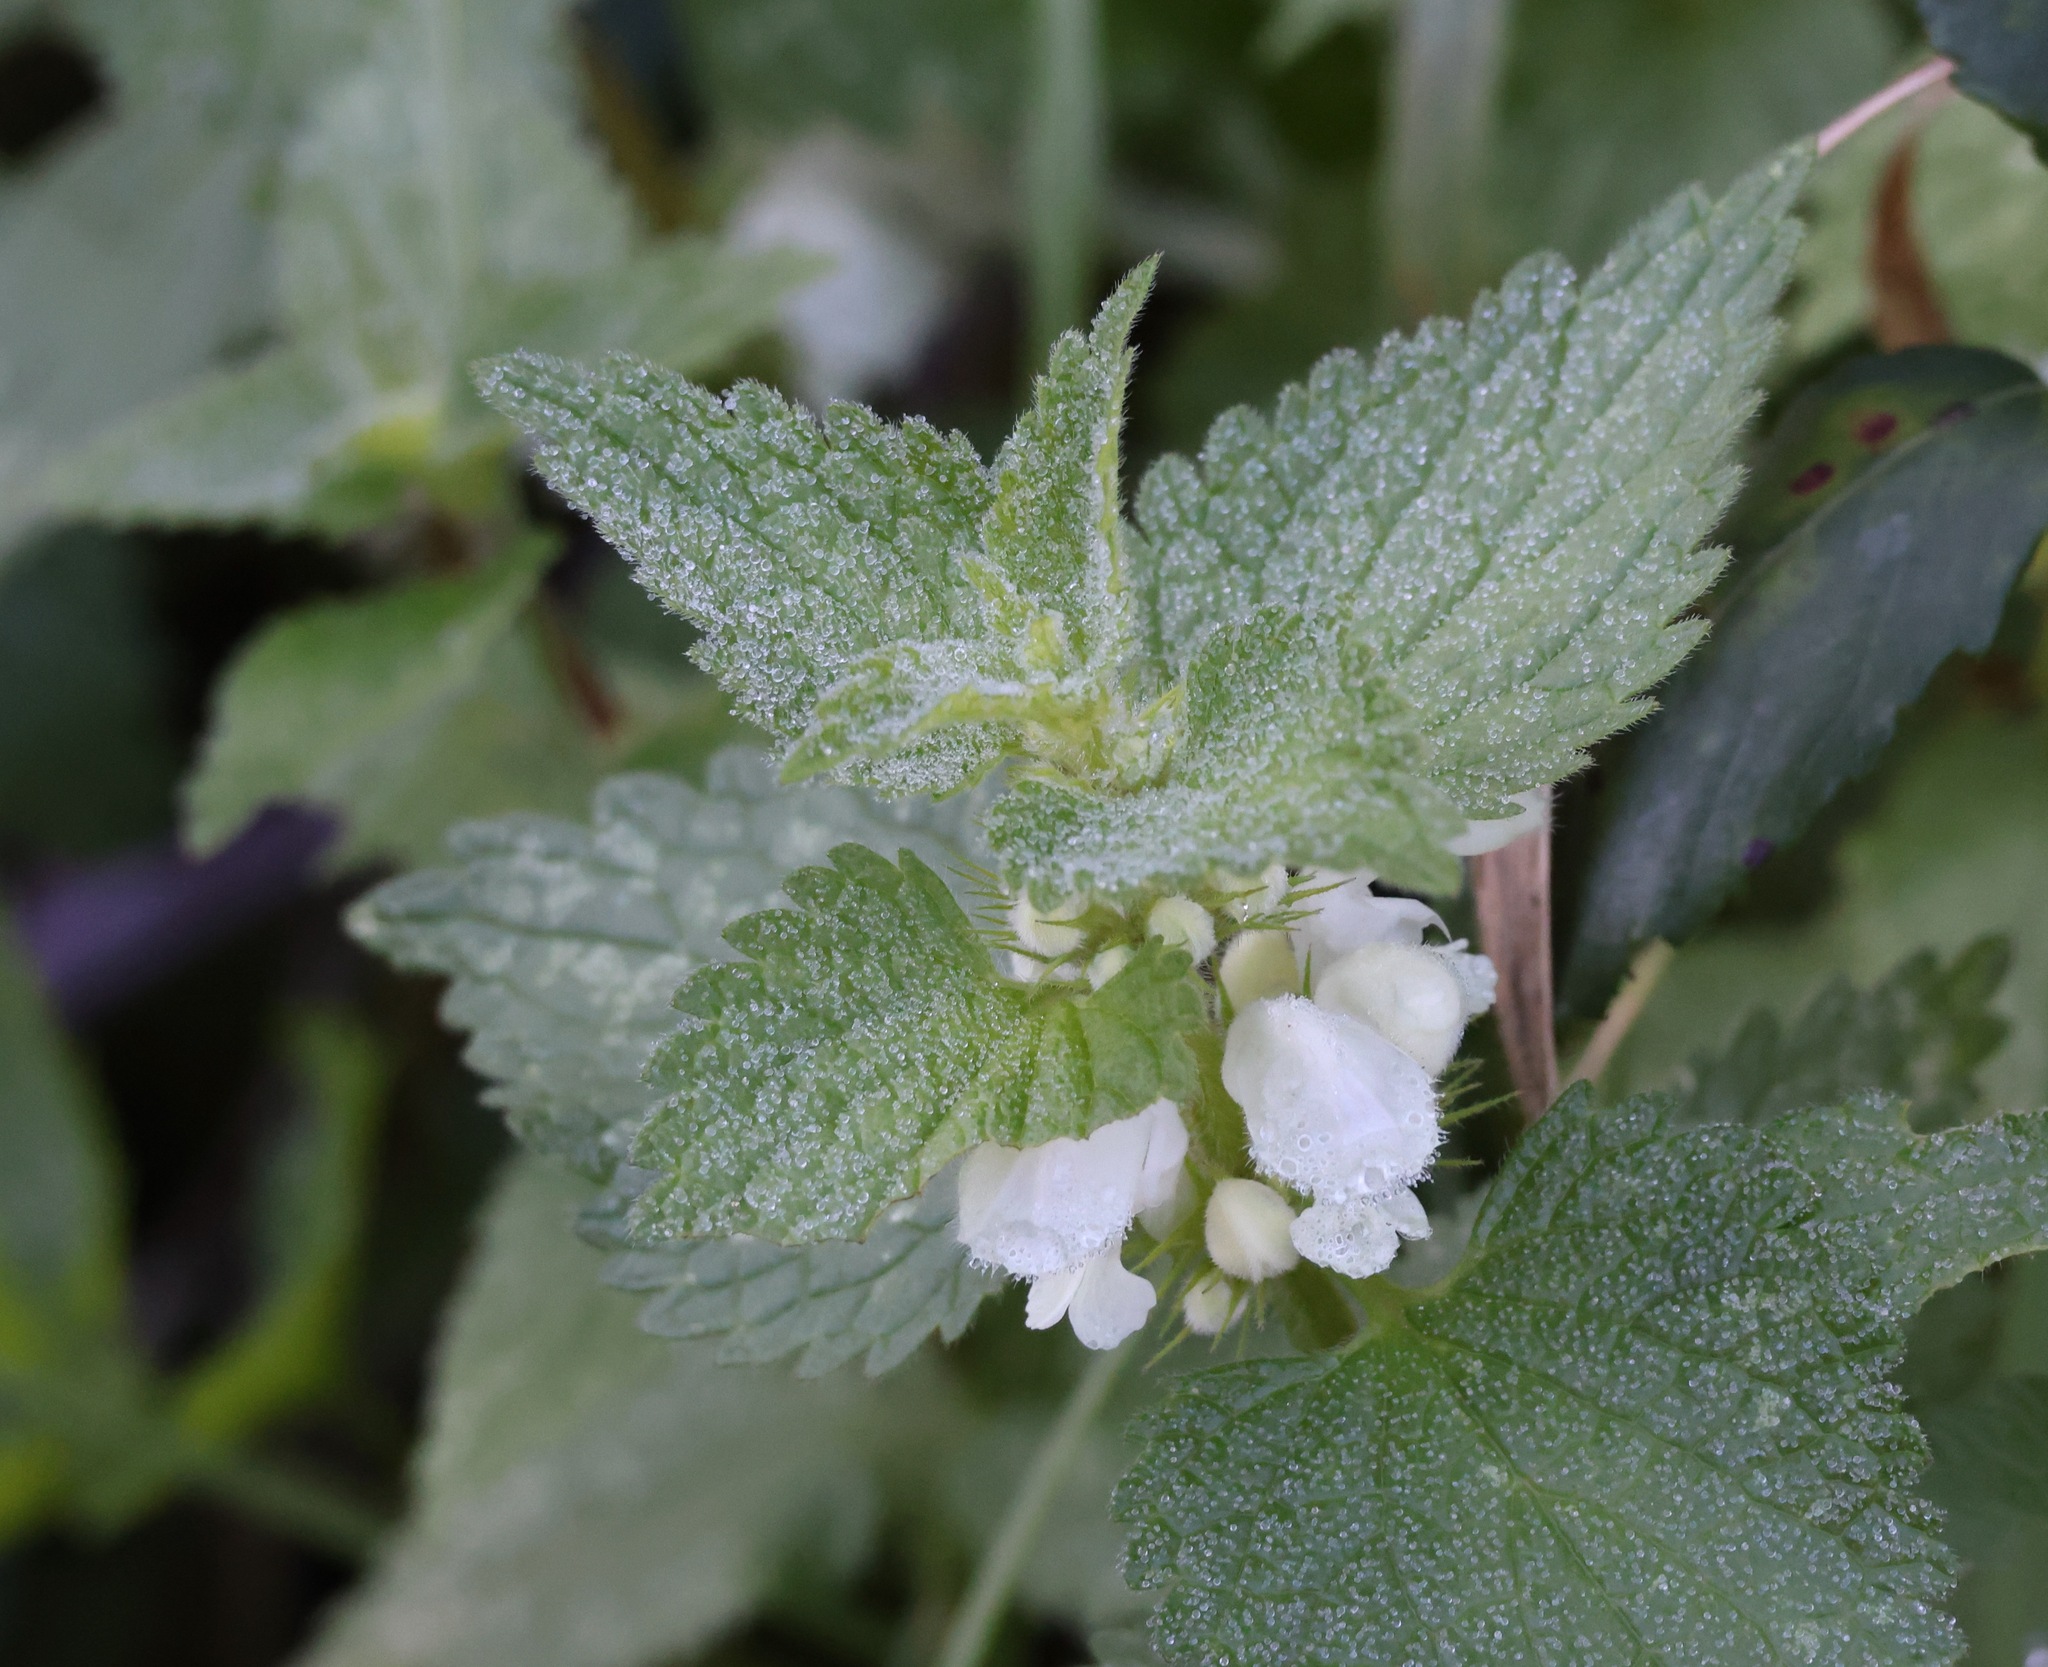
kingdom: Plantae
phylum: Tracheophyta
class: Magnoliopsida
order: Lamiales
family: Lamiaceae
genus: Lamium
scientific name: Lamium album
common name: White dead-nettle
